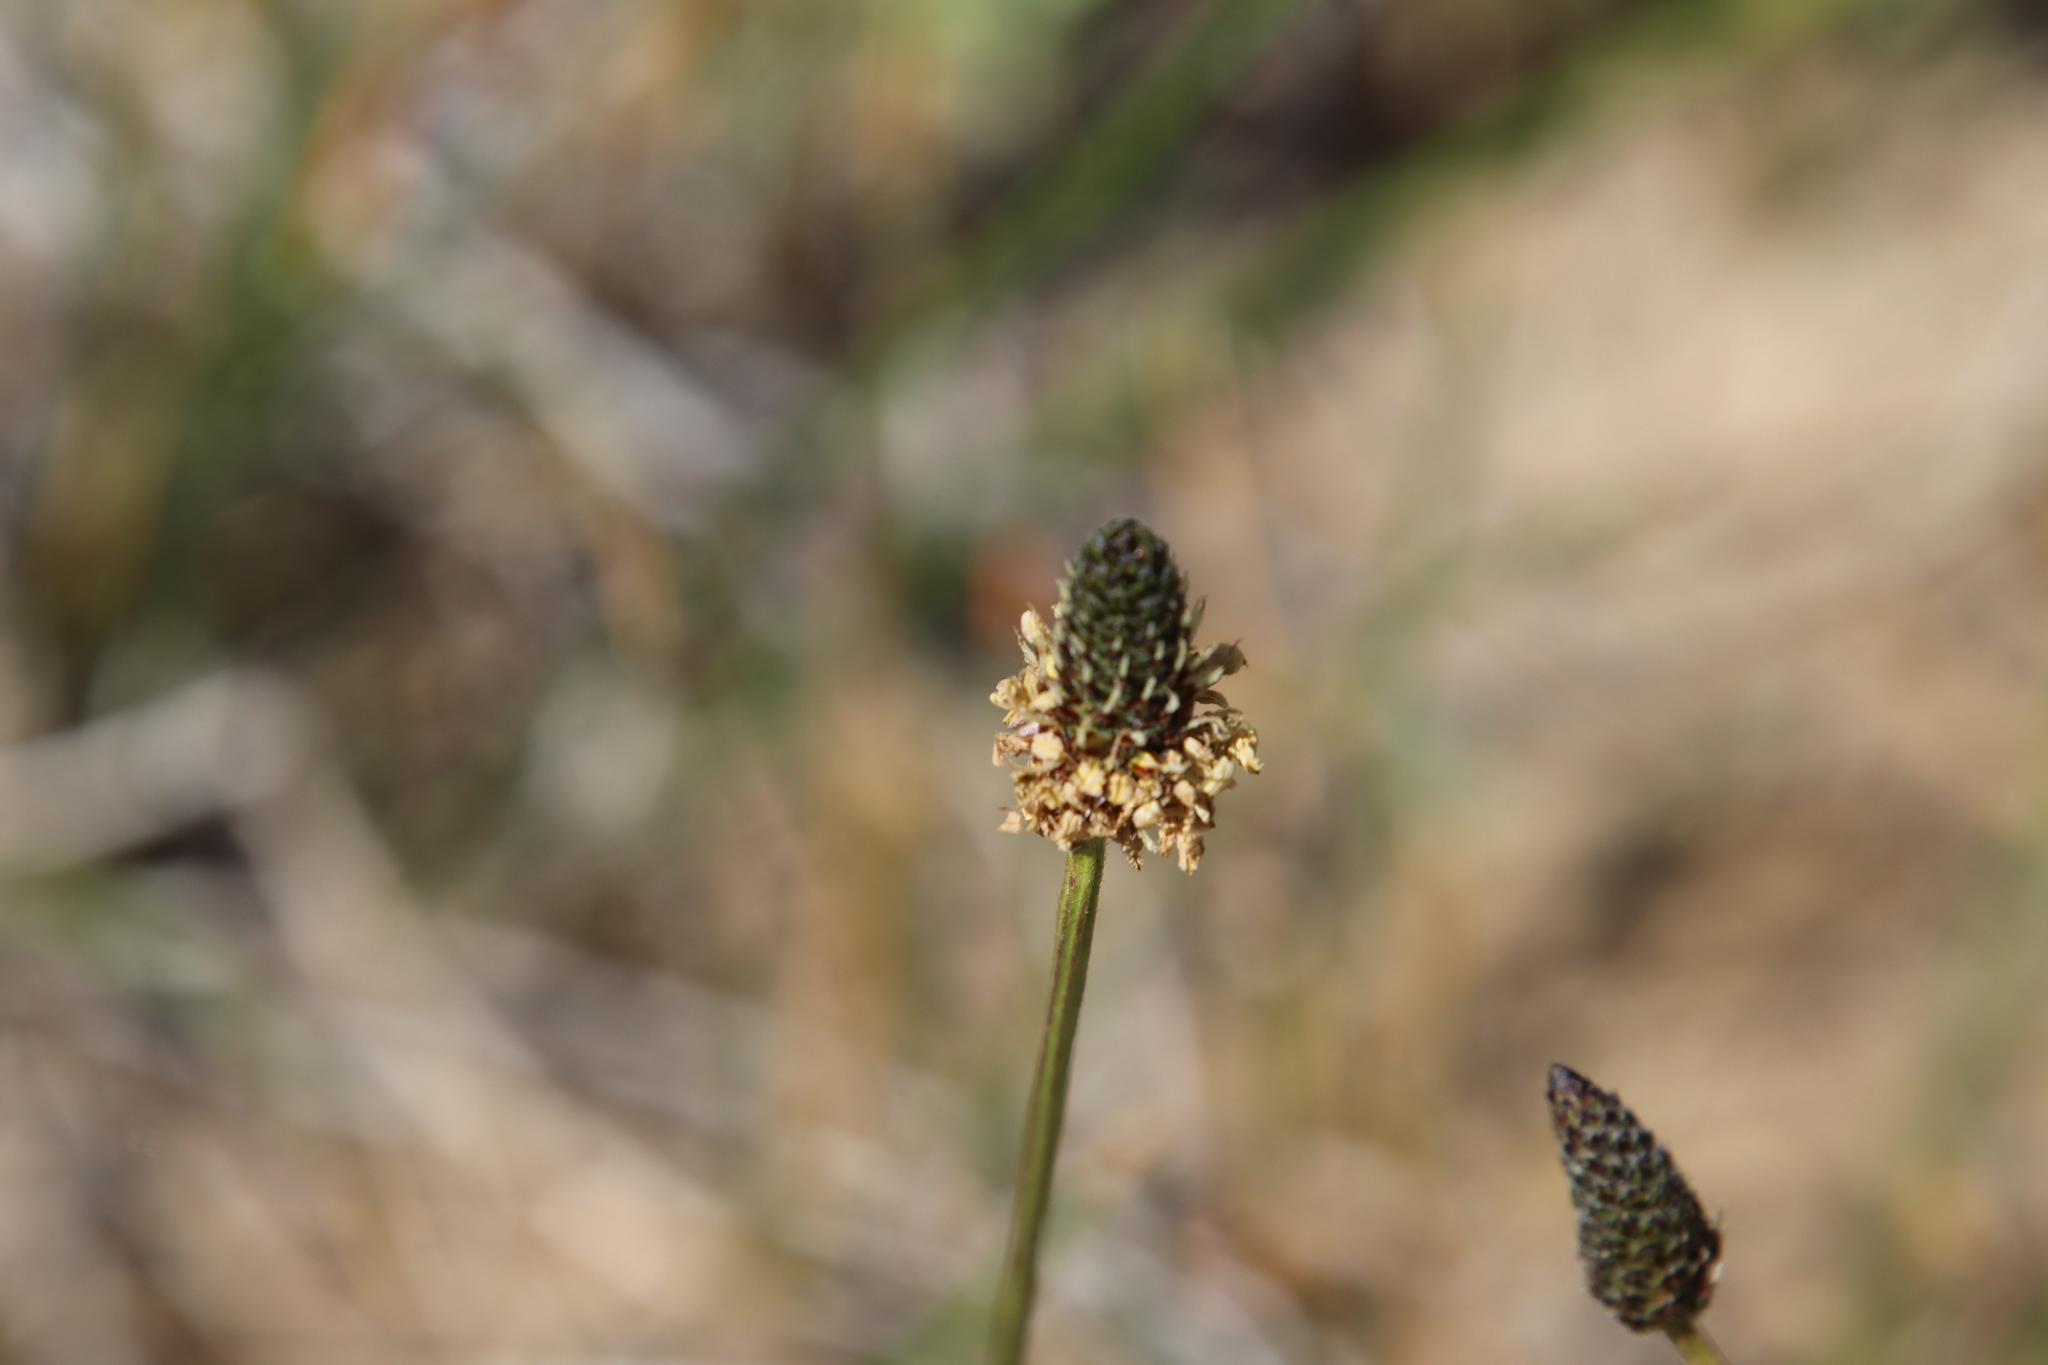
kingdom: Plantae
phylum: Tracheophyta
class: Magnoliopsida
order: Lamiales
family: Plantaginaceae
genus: Plantago
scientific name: Plantago lanceolata
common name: Ribwort plantain
